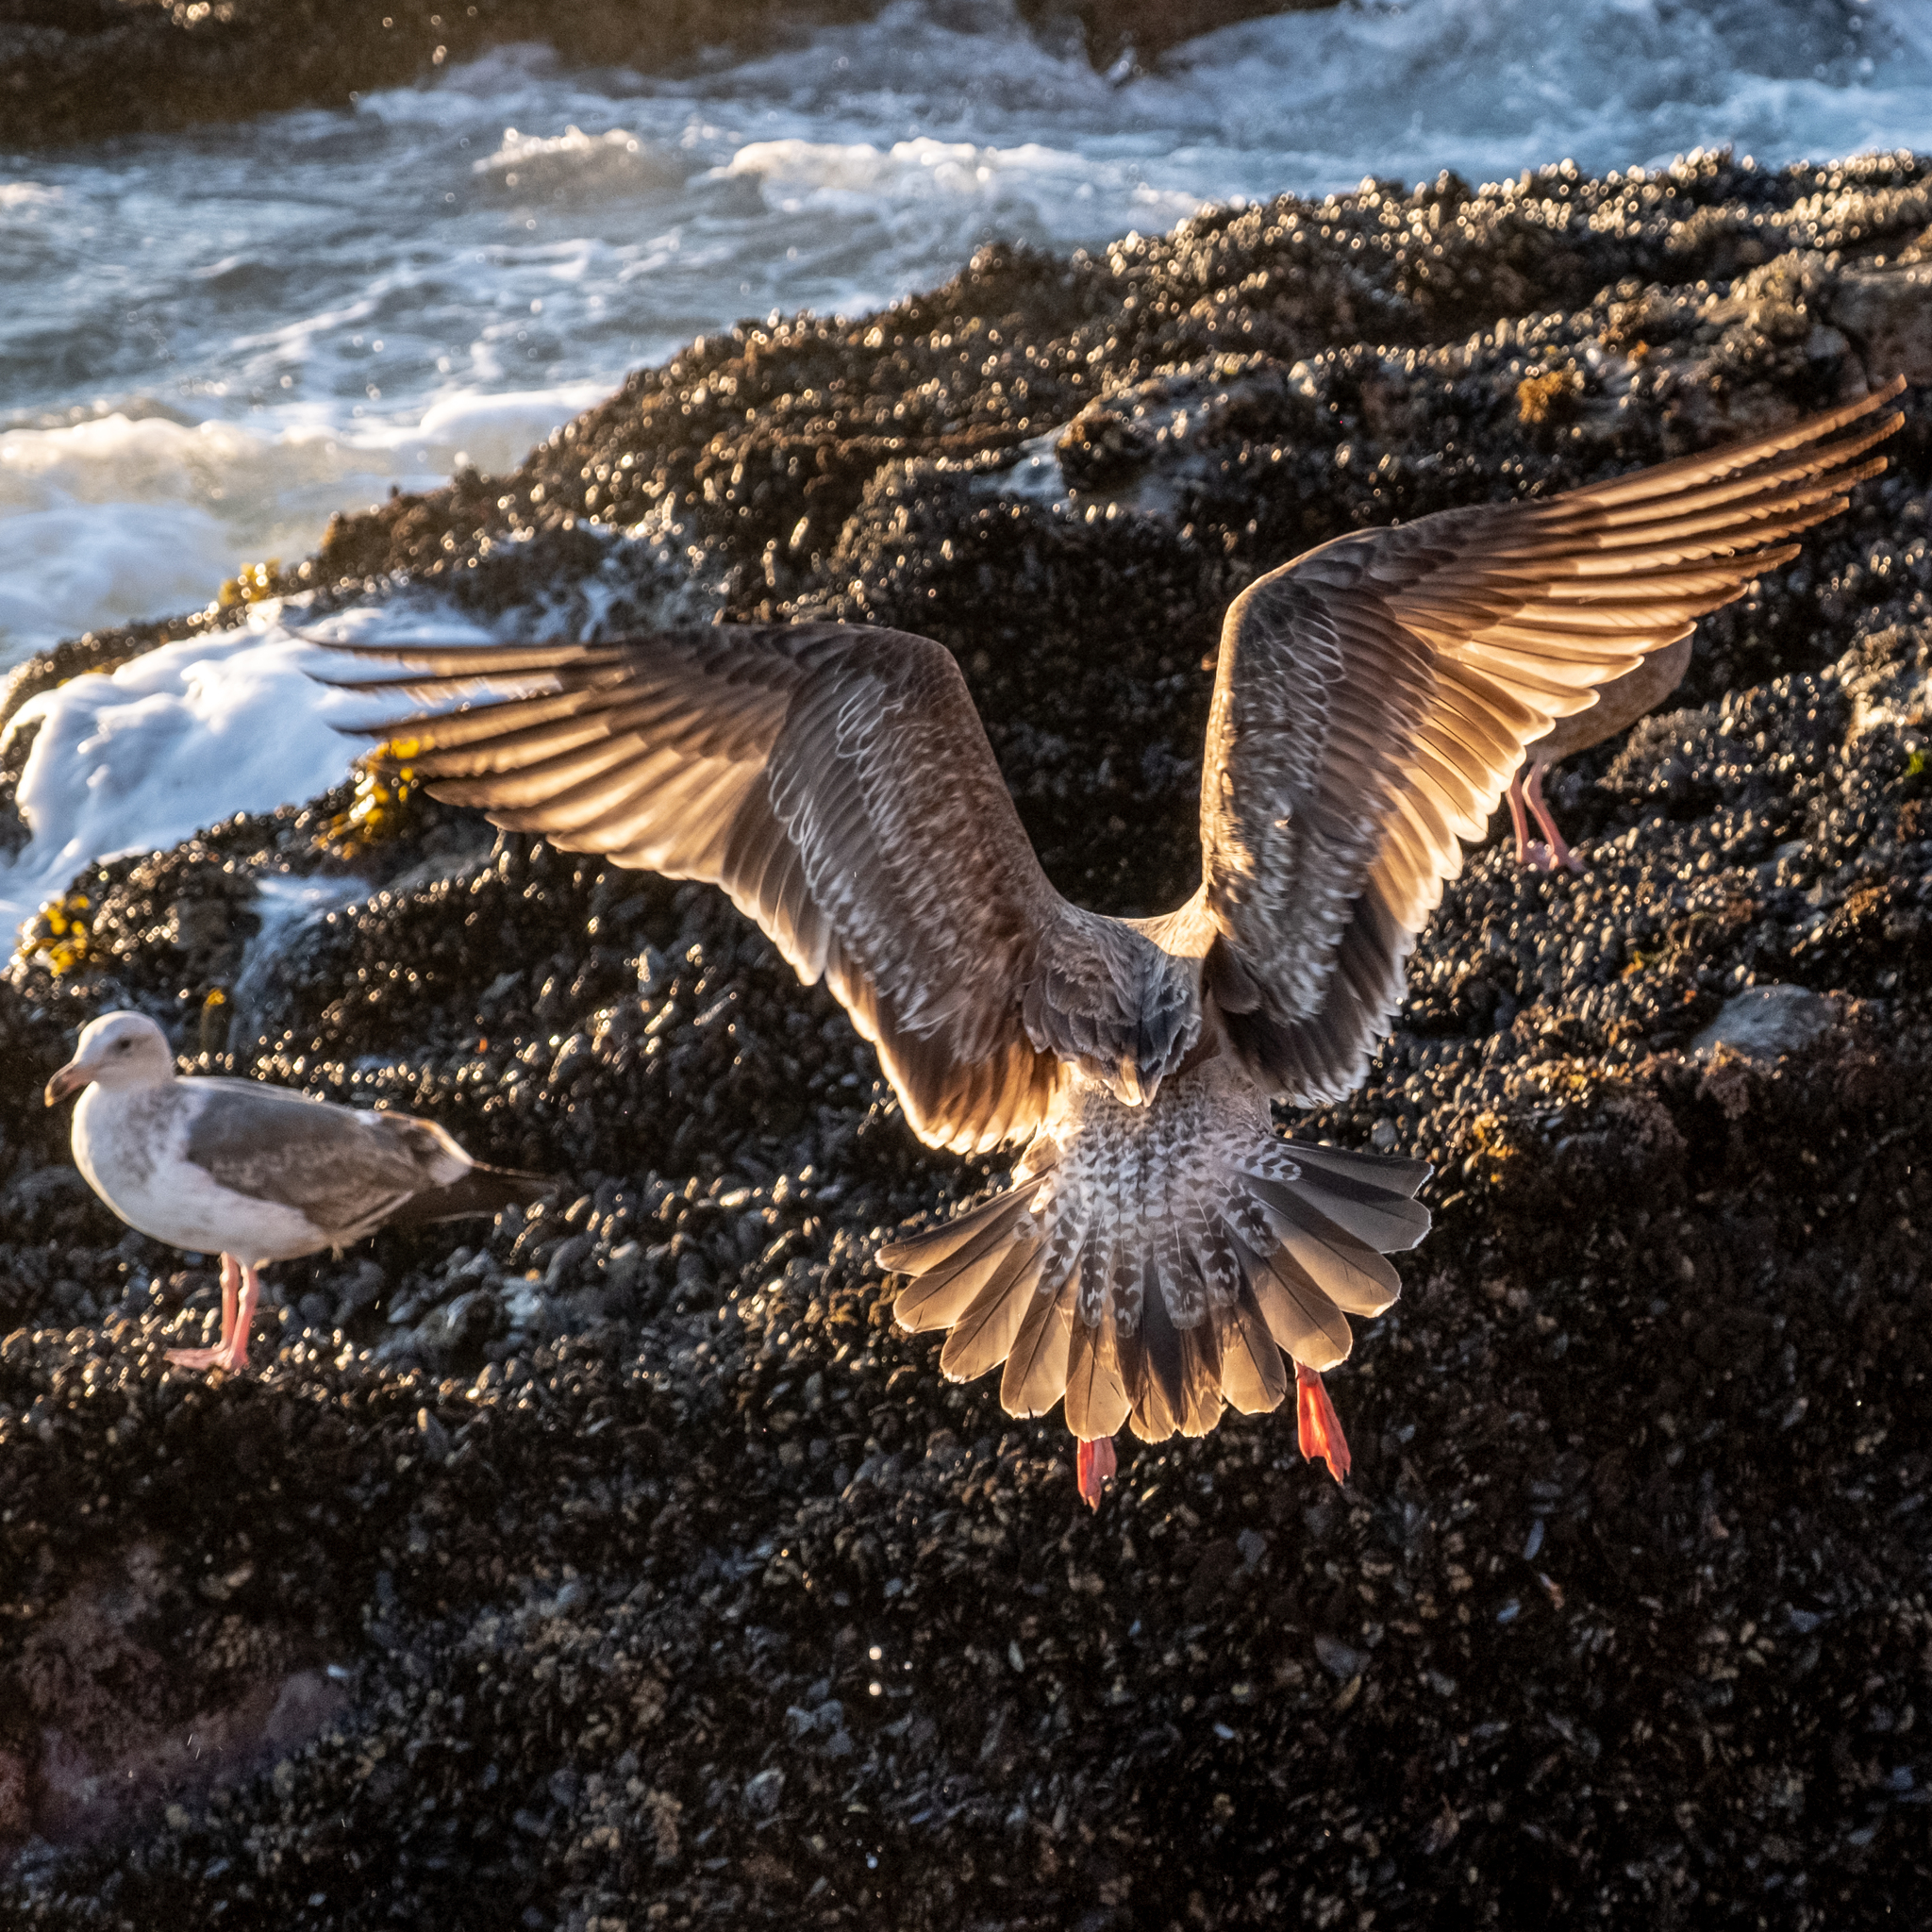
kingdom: Animalia
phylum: Chordata
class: Aves
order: Charadriiformes
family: Laridae
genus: Larus
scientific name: Larus occidentalis
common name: Western gull
